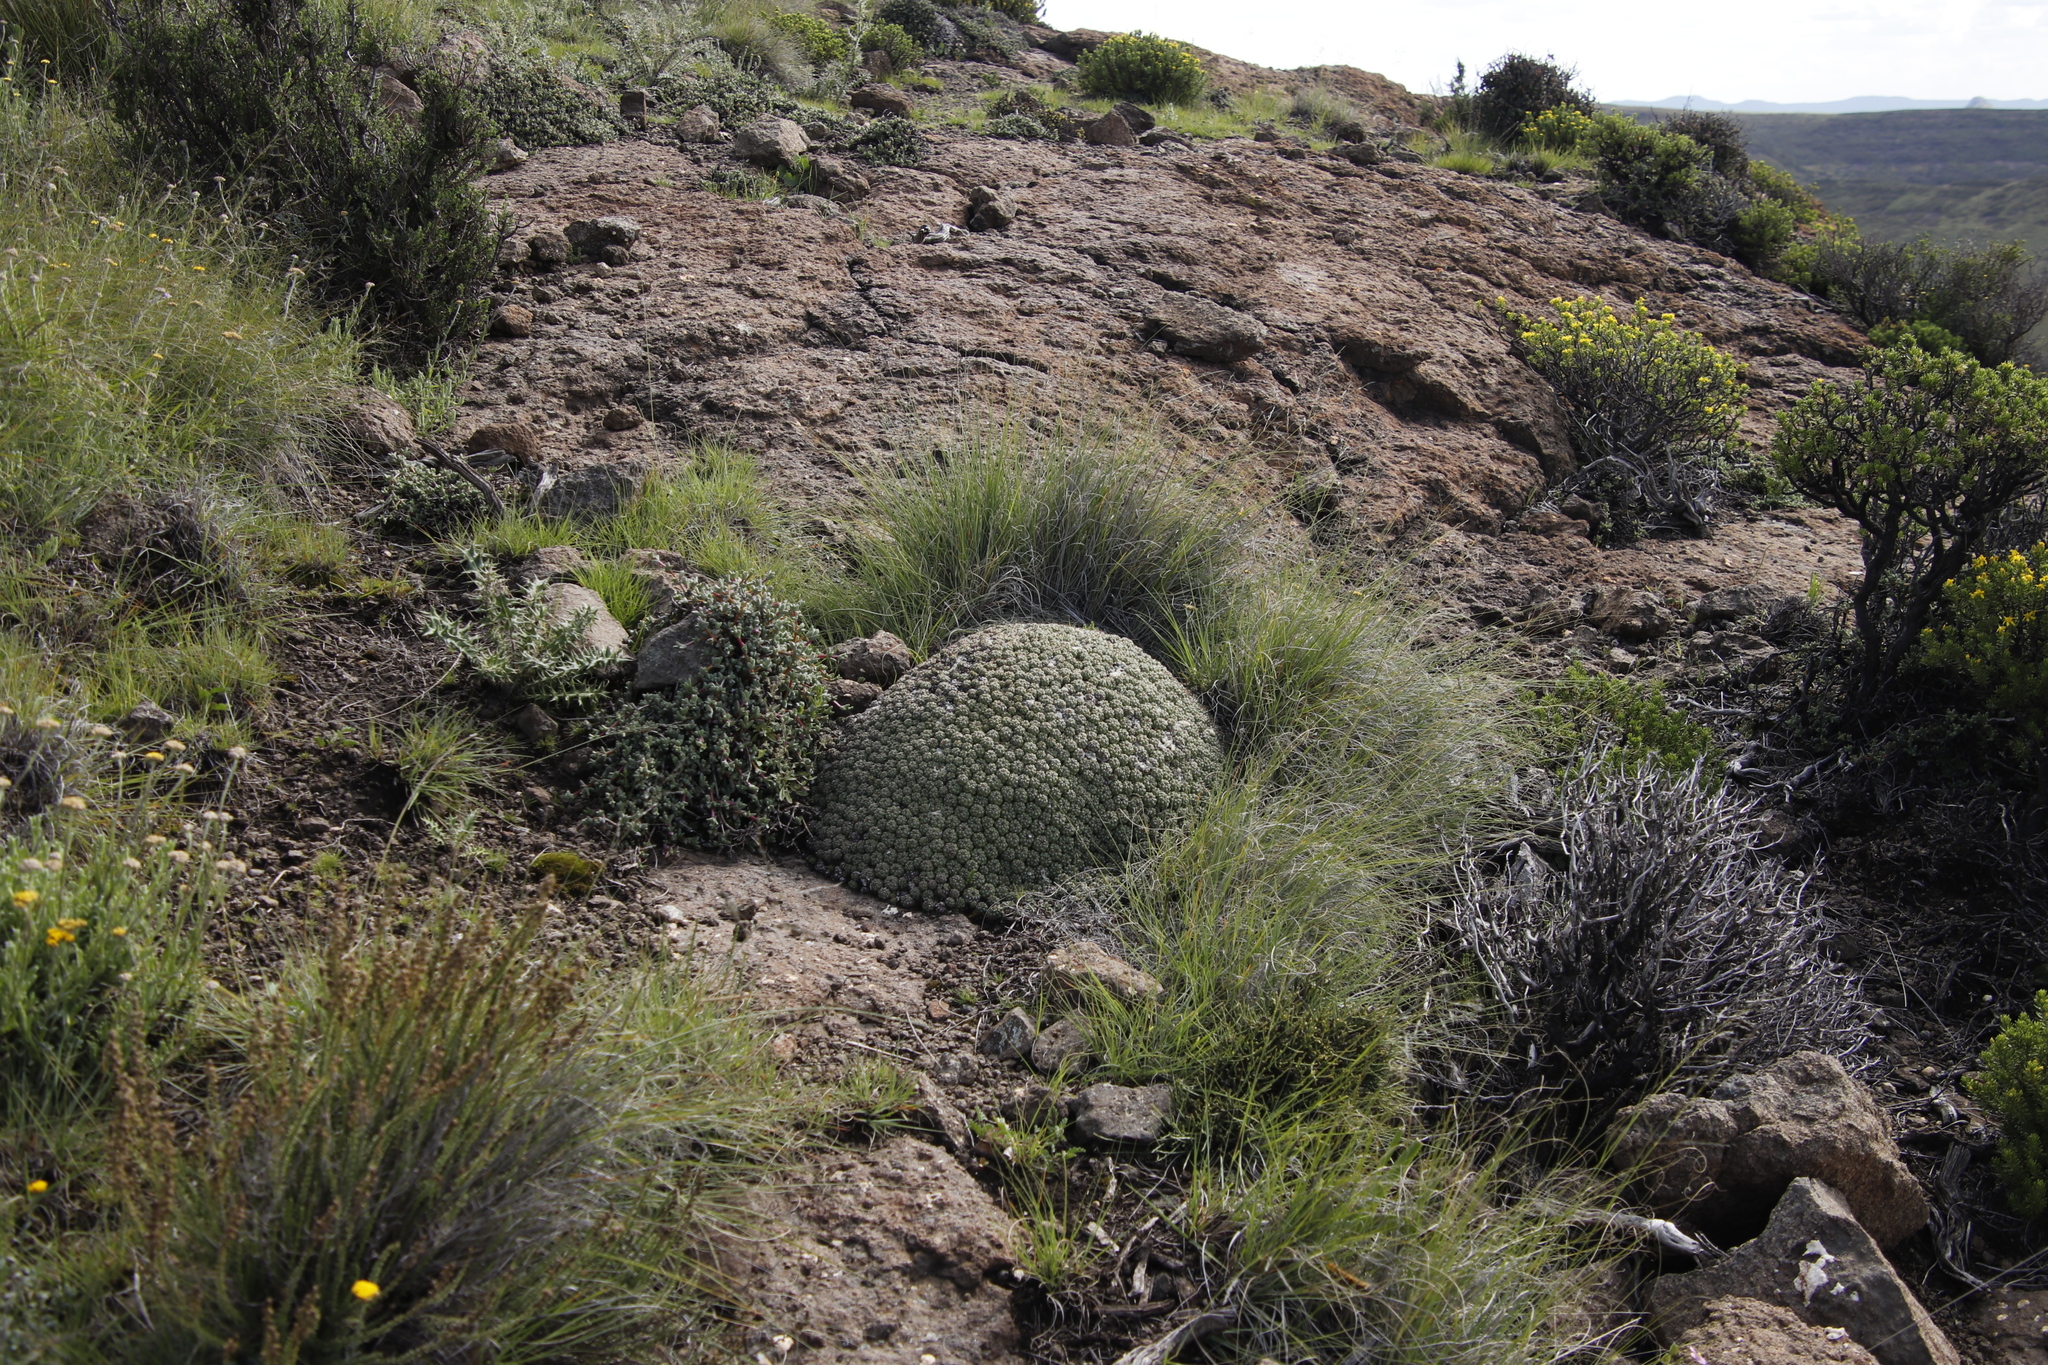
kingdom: Plantae
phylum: Tracheophyta
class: Magnoliopsida
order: Malpighiales
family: Euphorbiaceae
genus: Euphorbia
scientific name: Euphorbia clavarioides
